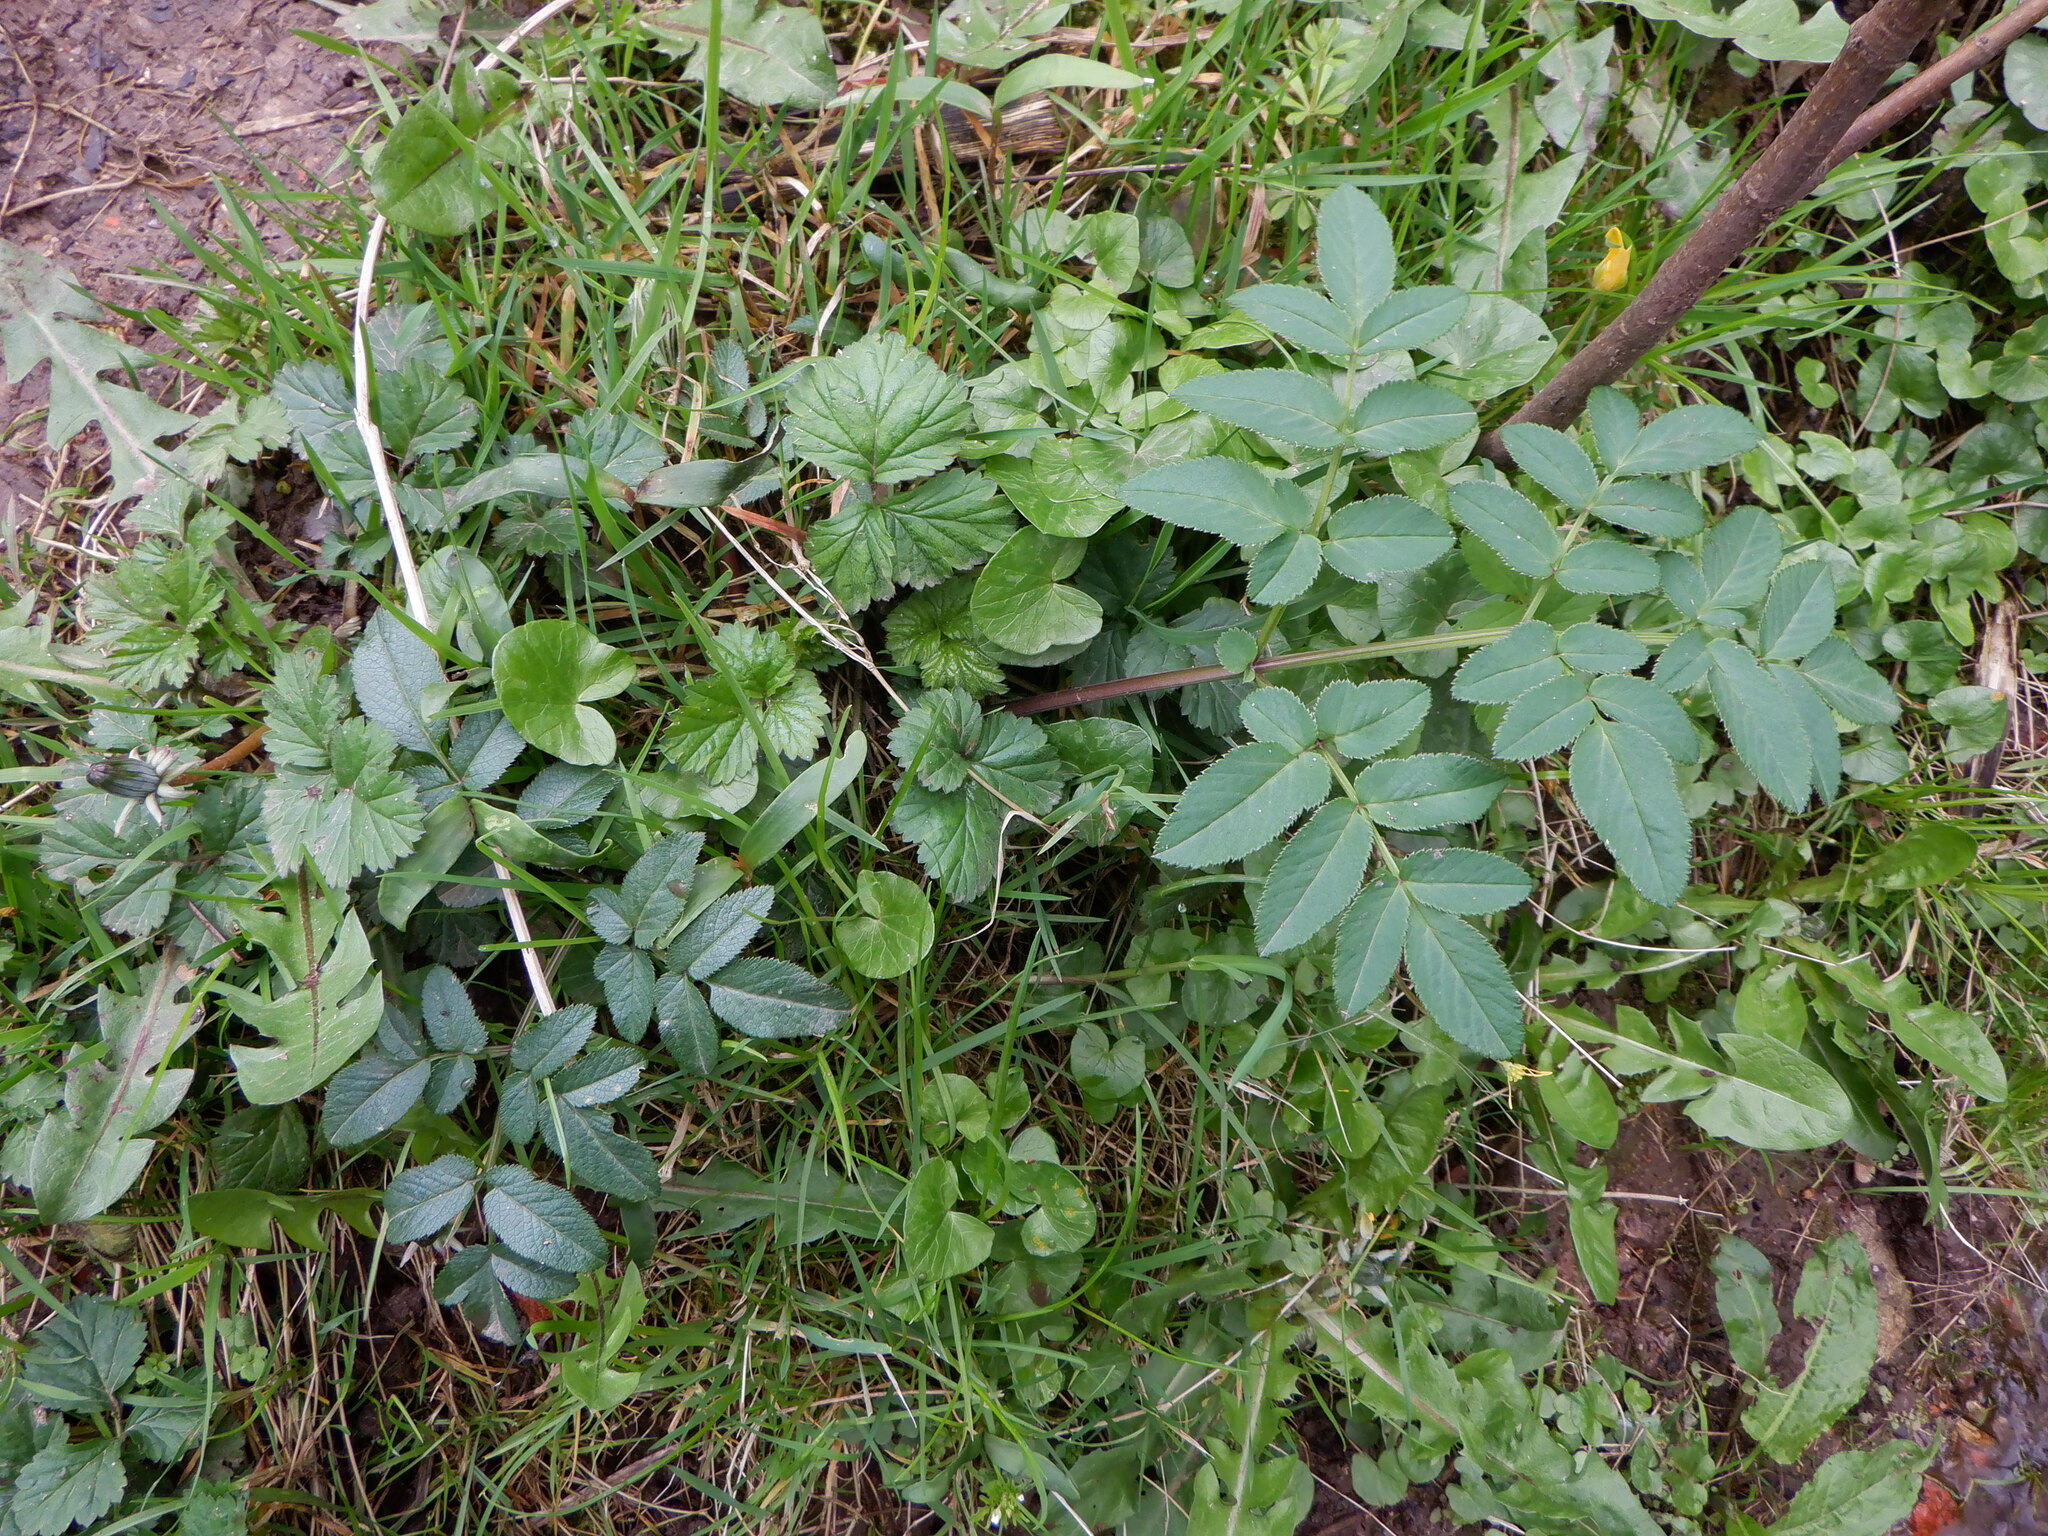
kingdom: Plantae
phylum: Tracheophyta
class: Magnoliopsida
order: Apiales
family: Apiaceae
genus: Angelica
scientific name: Angelica sylvestris
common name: Wild angelica
